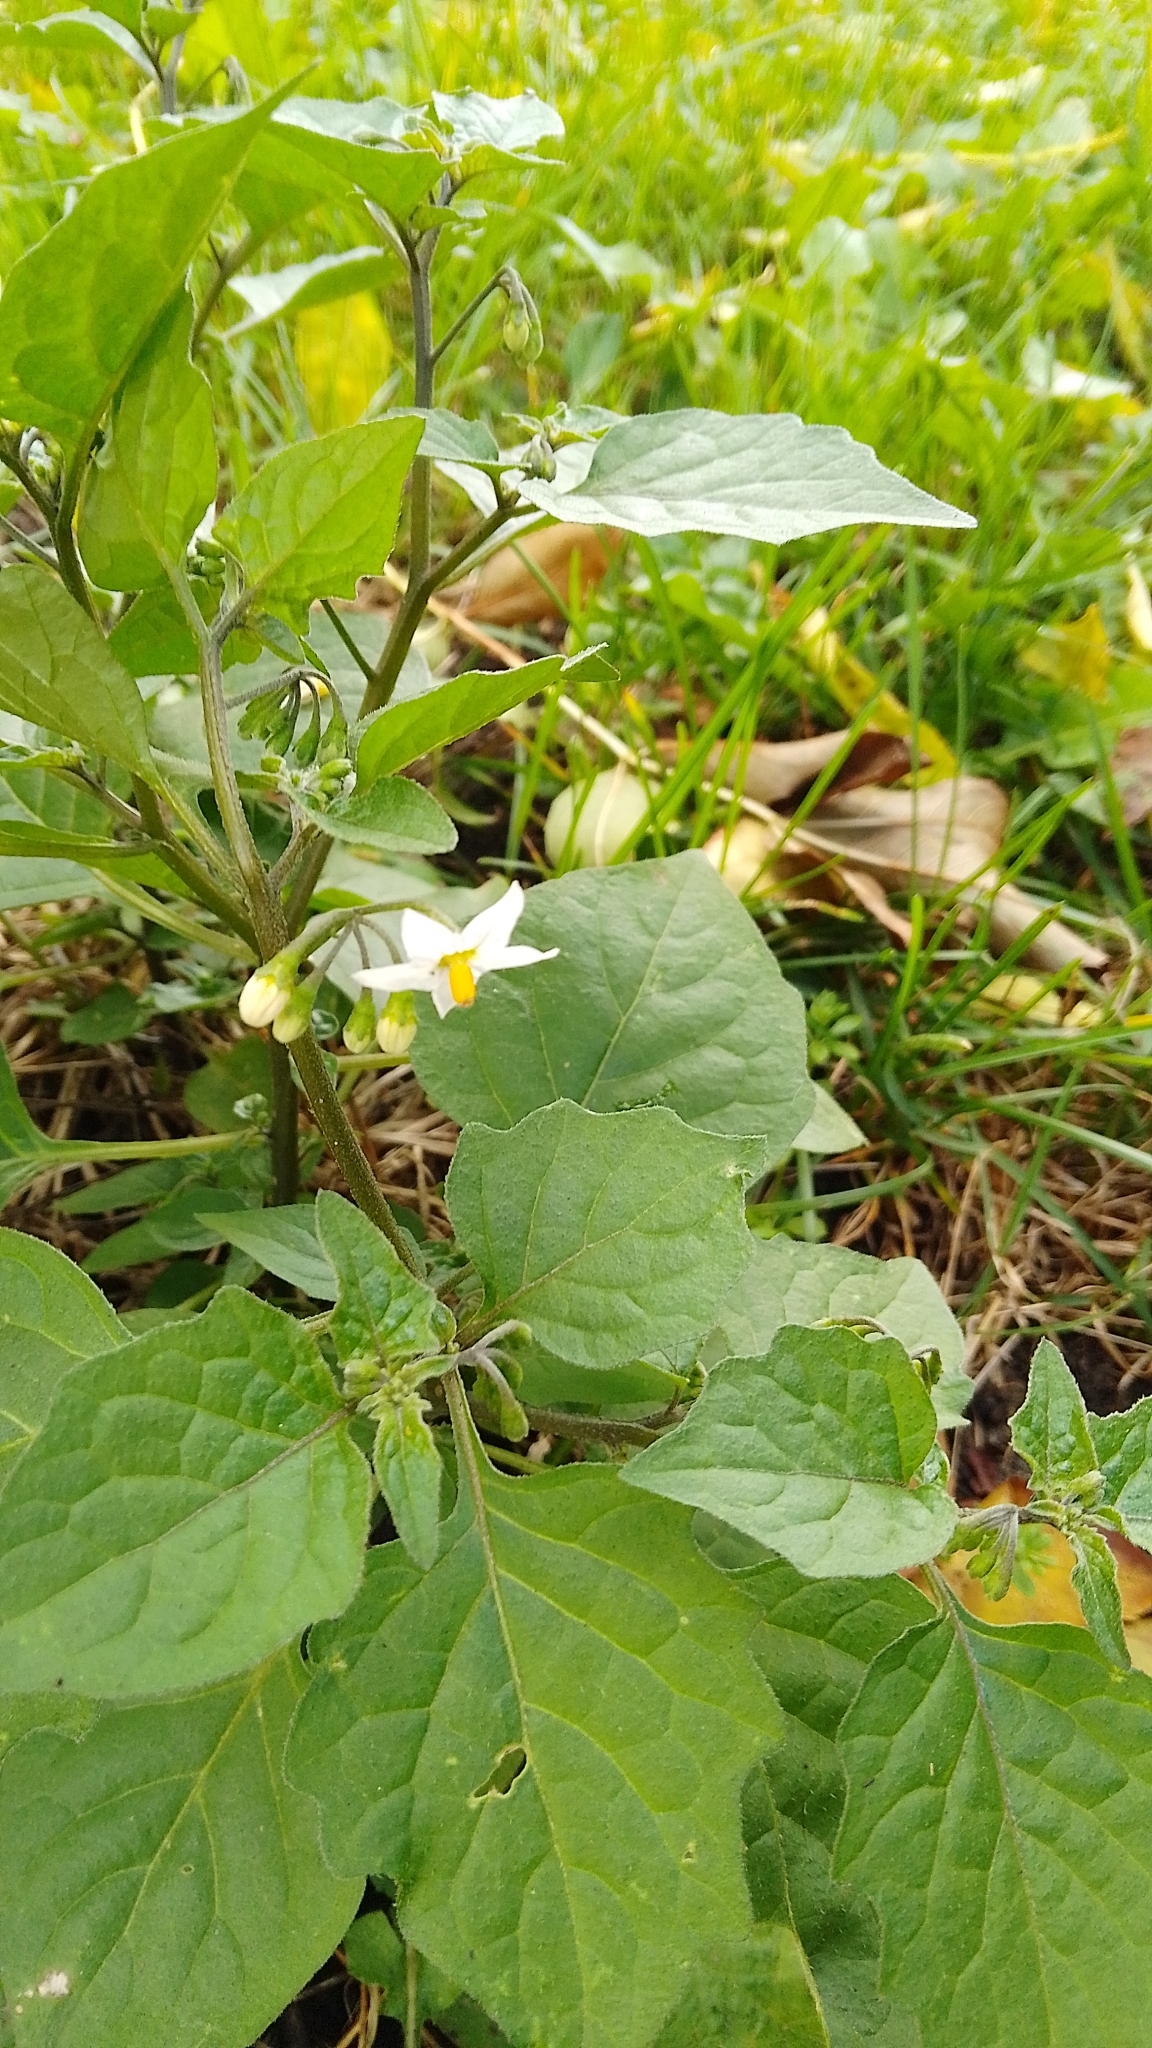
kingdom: Plantae
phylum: Tracheophyta
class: Magnoliopsida
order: Solanales
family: Solanaceae
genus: Solanum
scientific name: Solanum nigrum
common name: Black nightshade
